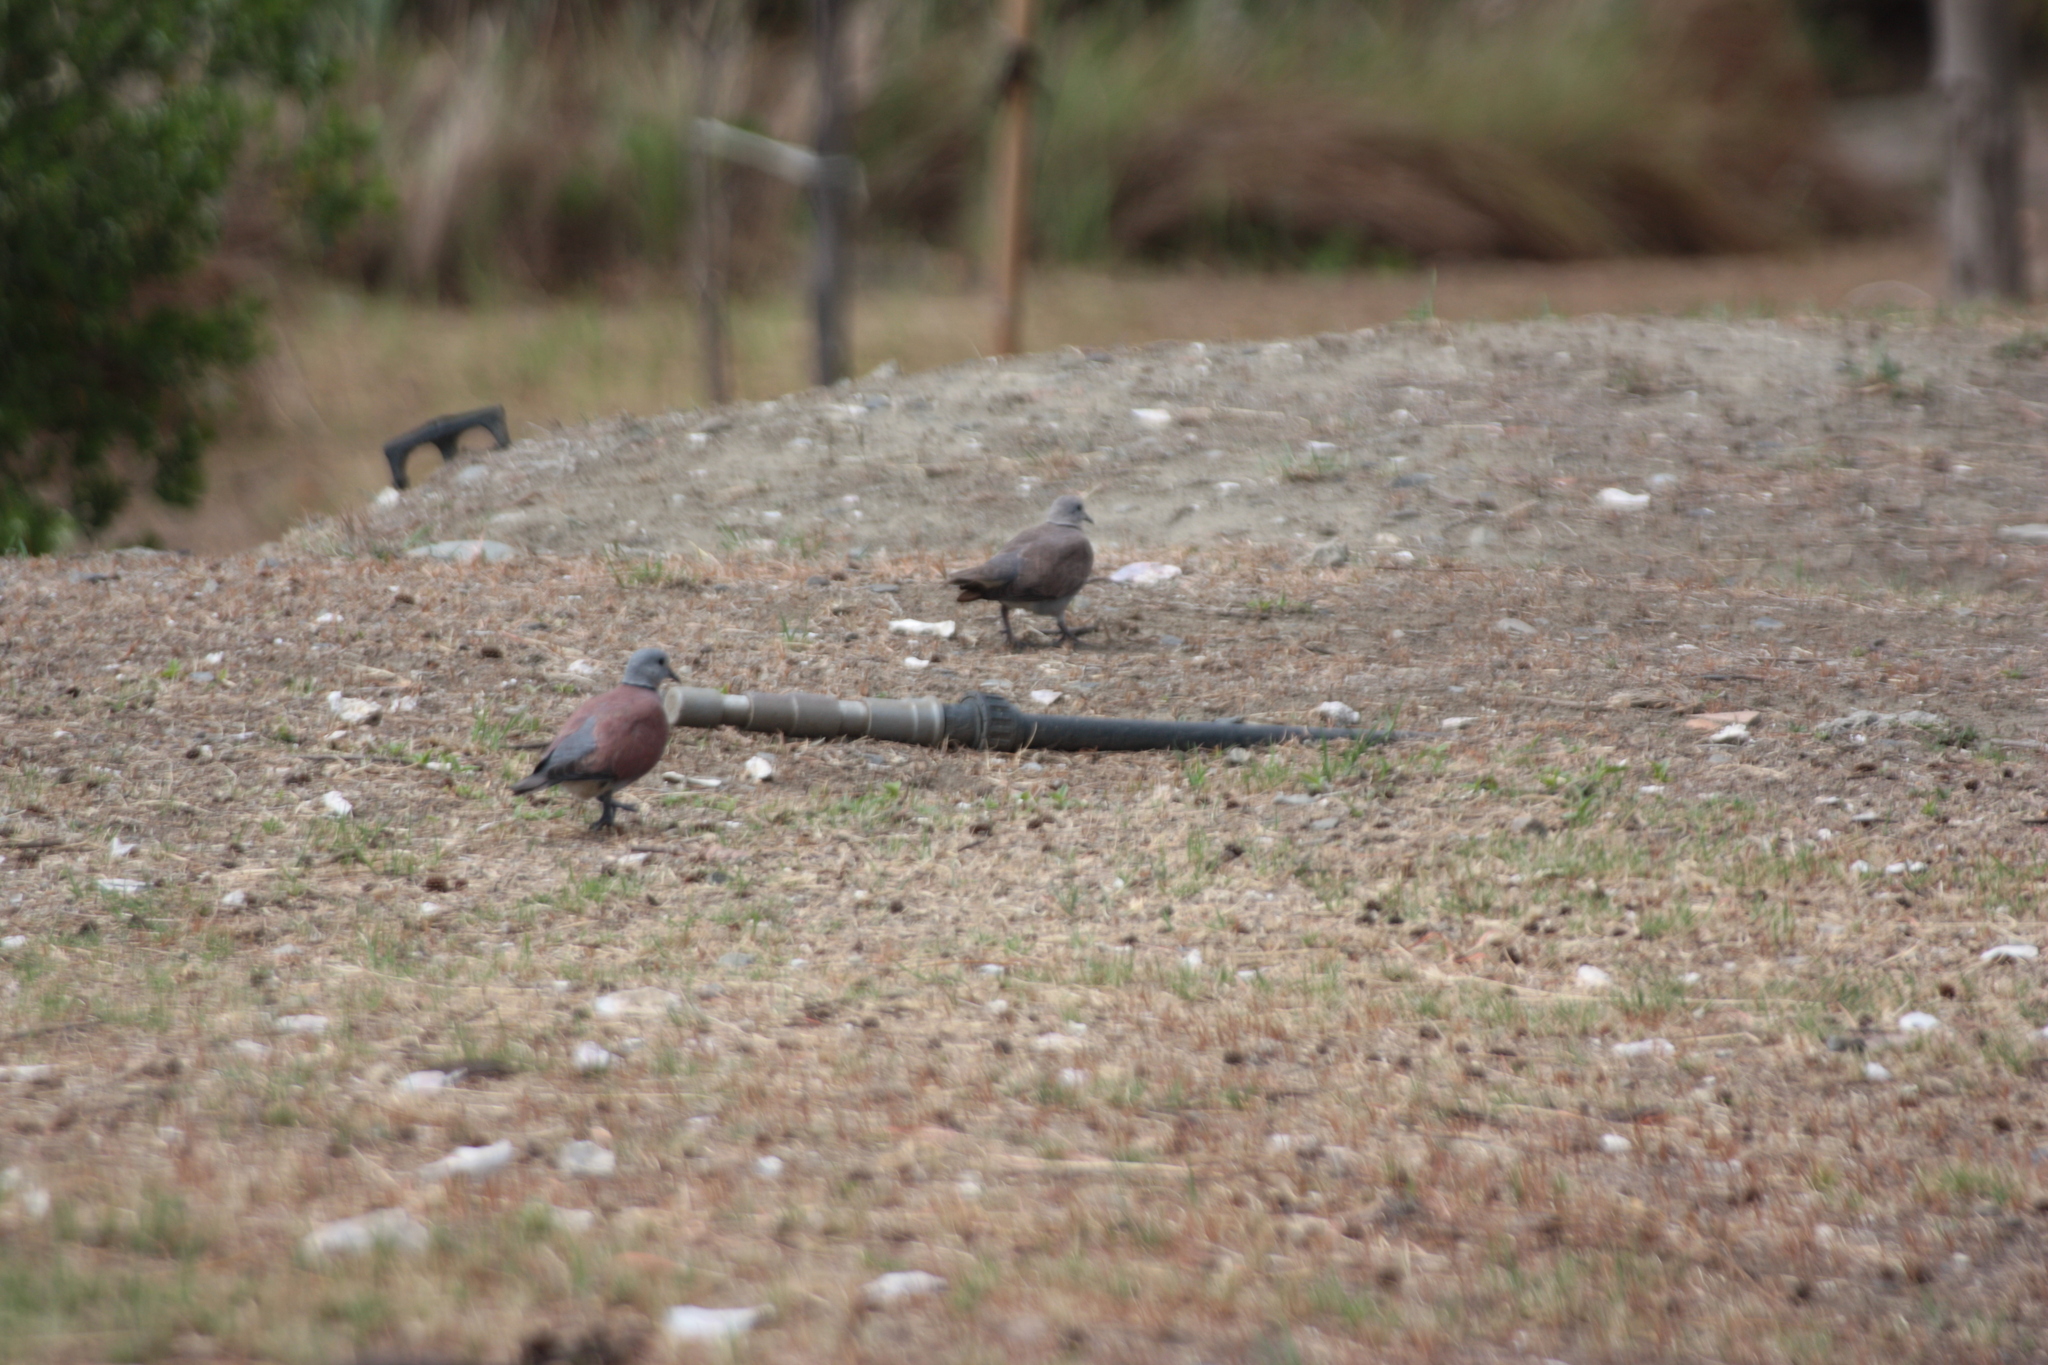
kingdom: Animalia
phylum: Chordata
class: Aves
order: Columbiformes
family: Columbidae
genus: Streptopelia
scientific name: Streptopelia tranquebarica
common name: Red turtle dove
